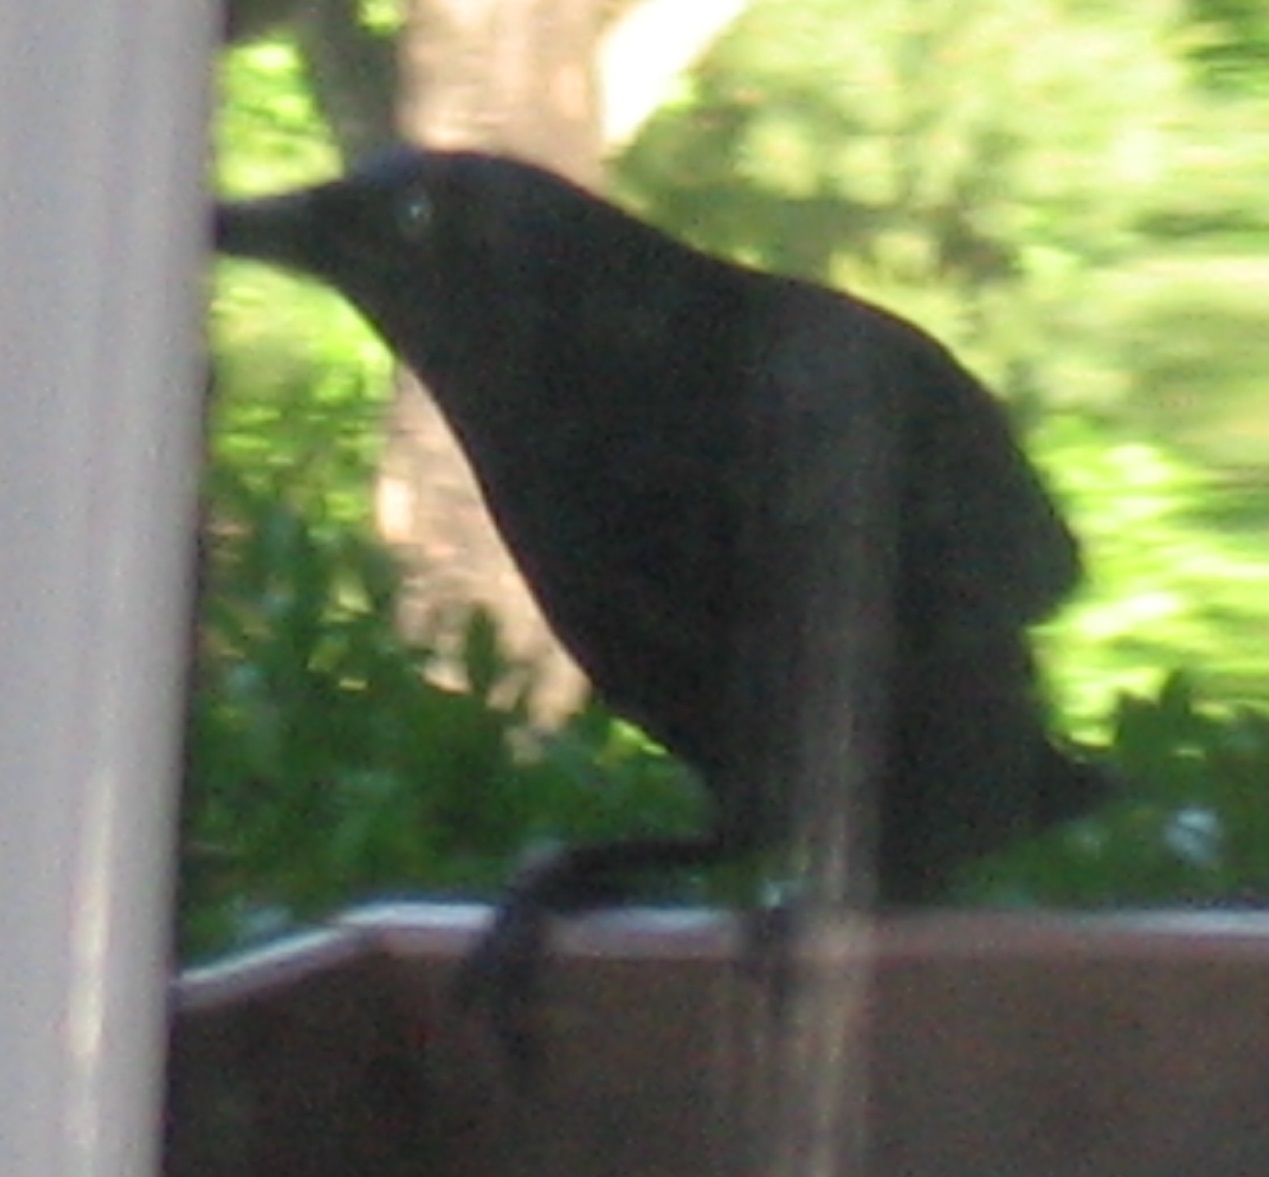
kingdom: Animalia
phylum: Chordata
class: Aves
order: Passeriformes
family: Icteridae
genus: Quiscalus
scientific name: Quiscalus quiscula
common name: Common grackle
